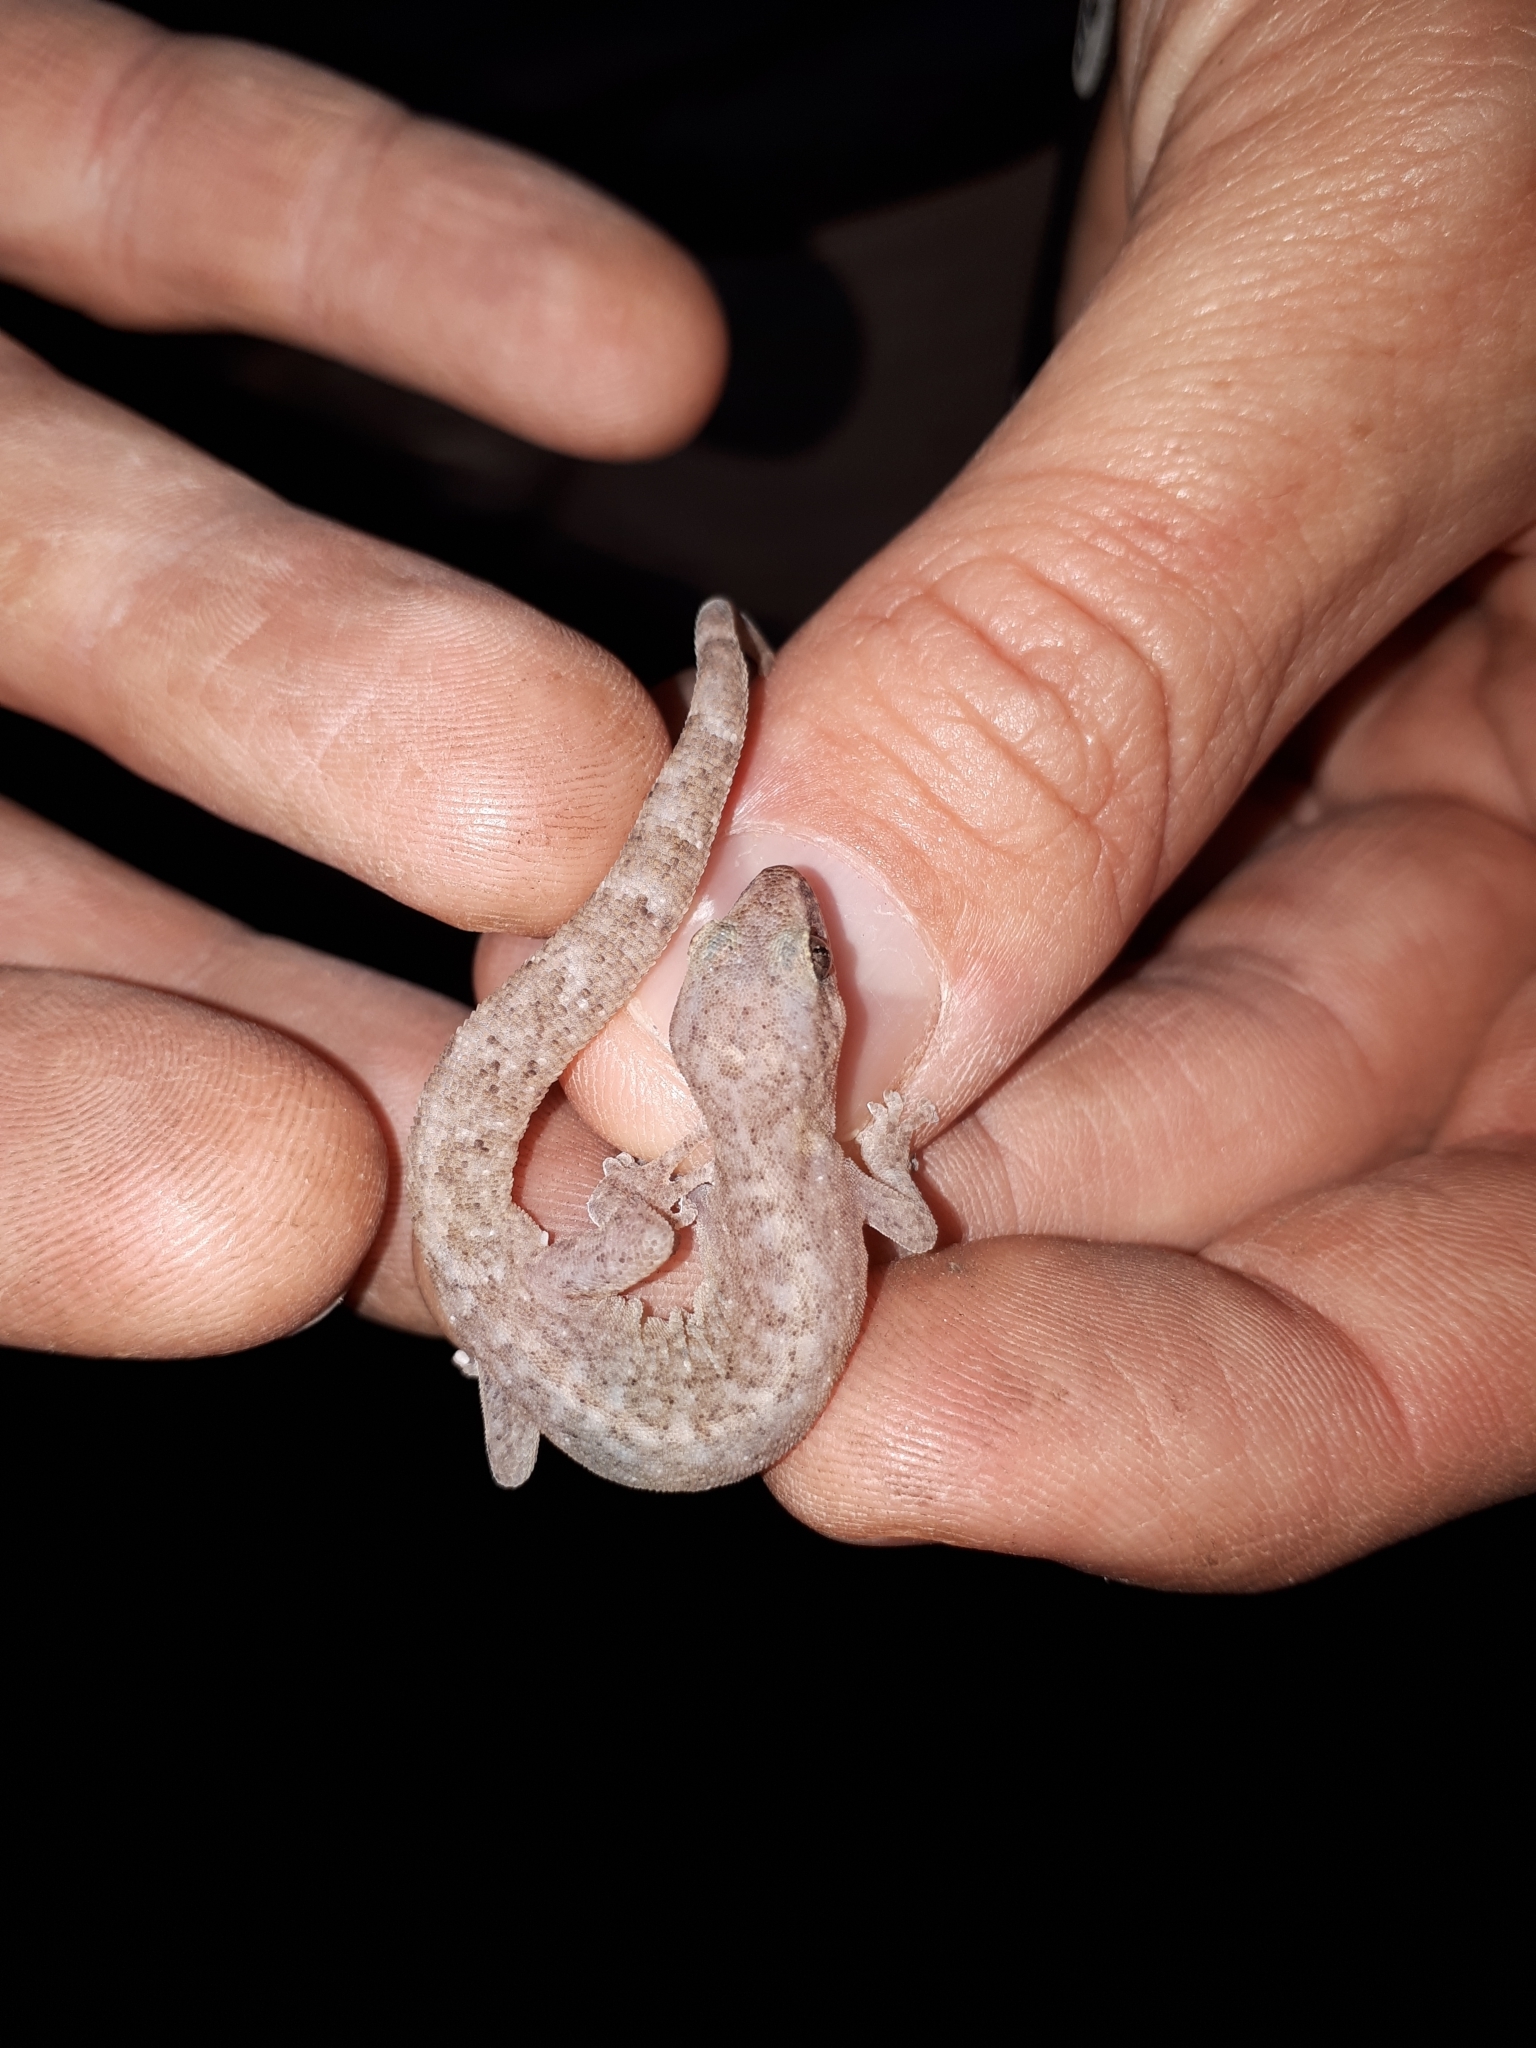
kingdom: Animalia
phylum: Chordata
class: Squamata
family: Gekkonidae
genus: Afrogecko
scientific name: Afrogecko porphyreus
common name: Marbled leaf-toed gecko
